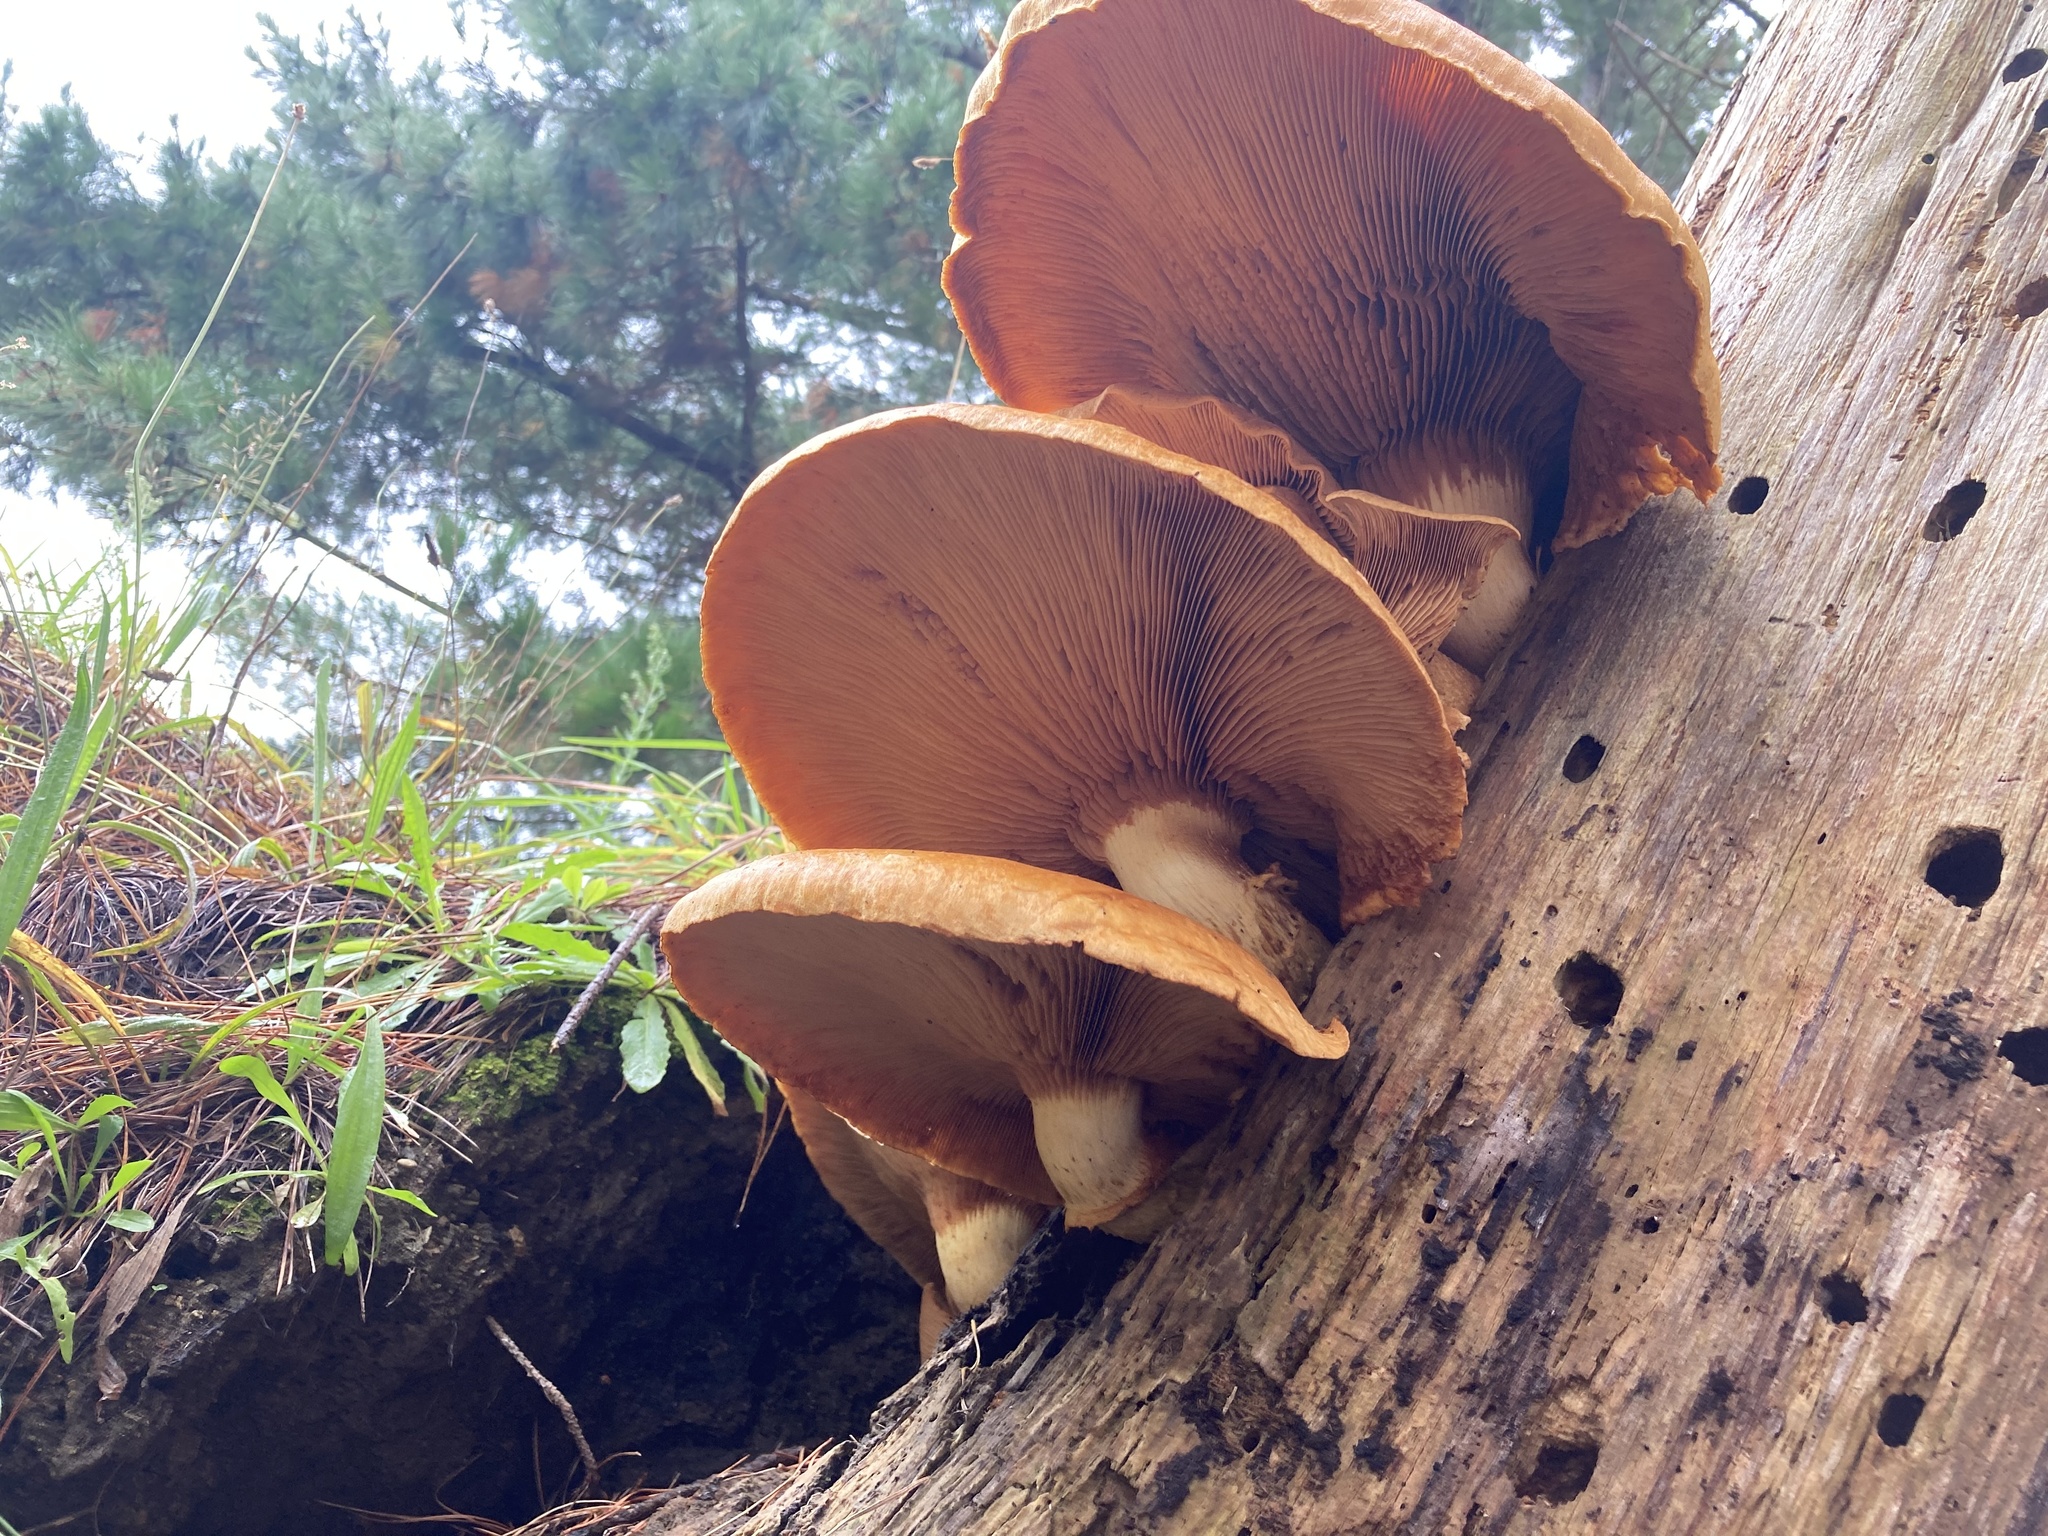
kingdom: Fungi
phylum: Basidiomycota
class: Agaricomycetes
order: Agaricales
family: Hymenogastraceae
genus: Gymnopilus
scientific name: Gymnopilus junonius
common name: Spectacular rustgill
